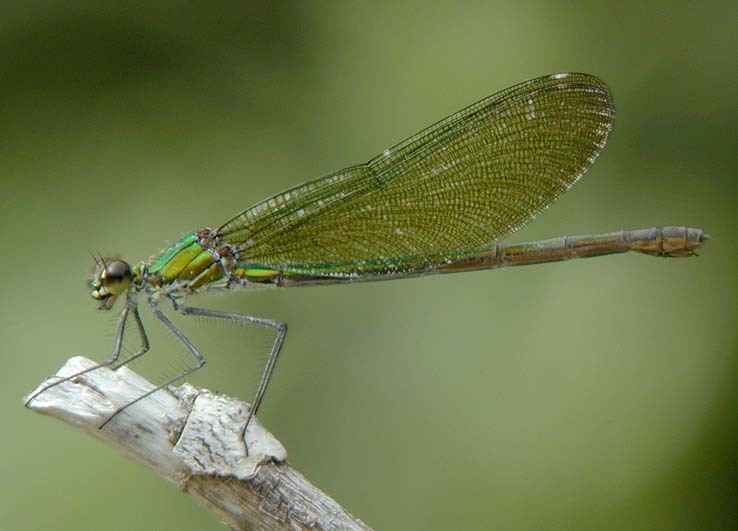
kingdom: Animalia
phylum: Arthropoda
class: Insecta
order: Odonata
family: Calopterygidae
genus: Calopteryx
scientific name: Calopteryx splendens
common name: Banded demoiselle
